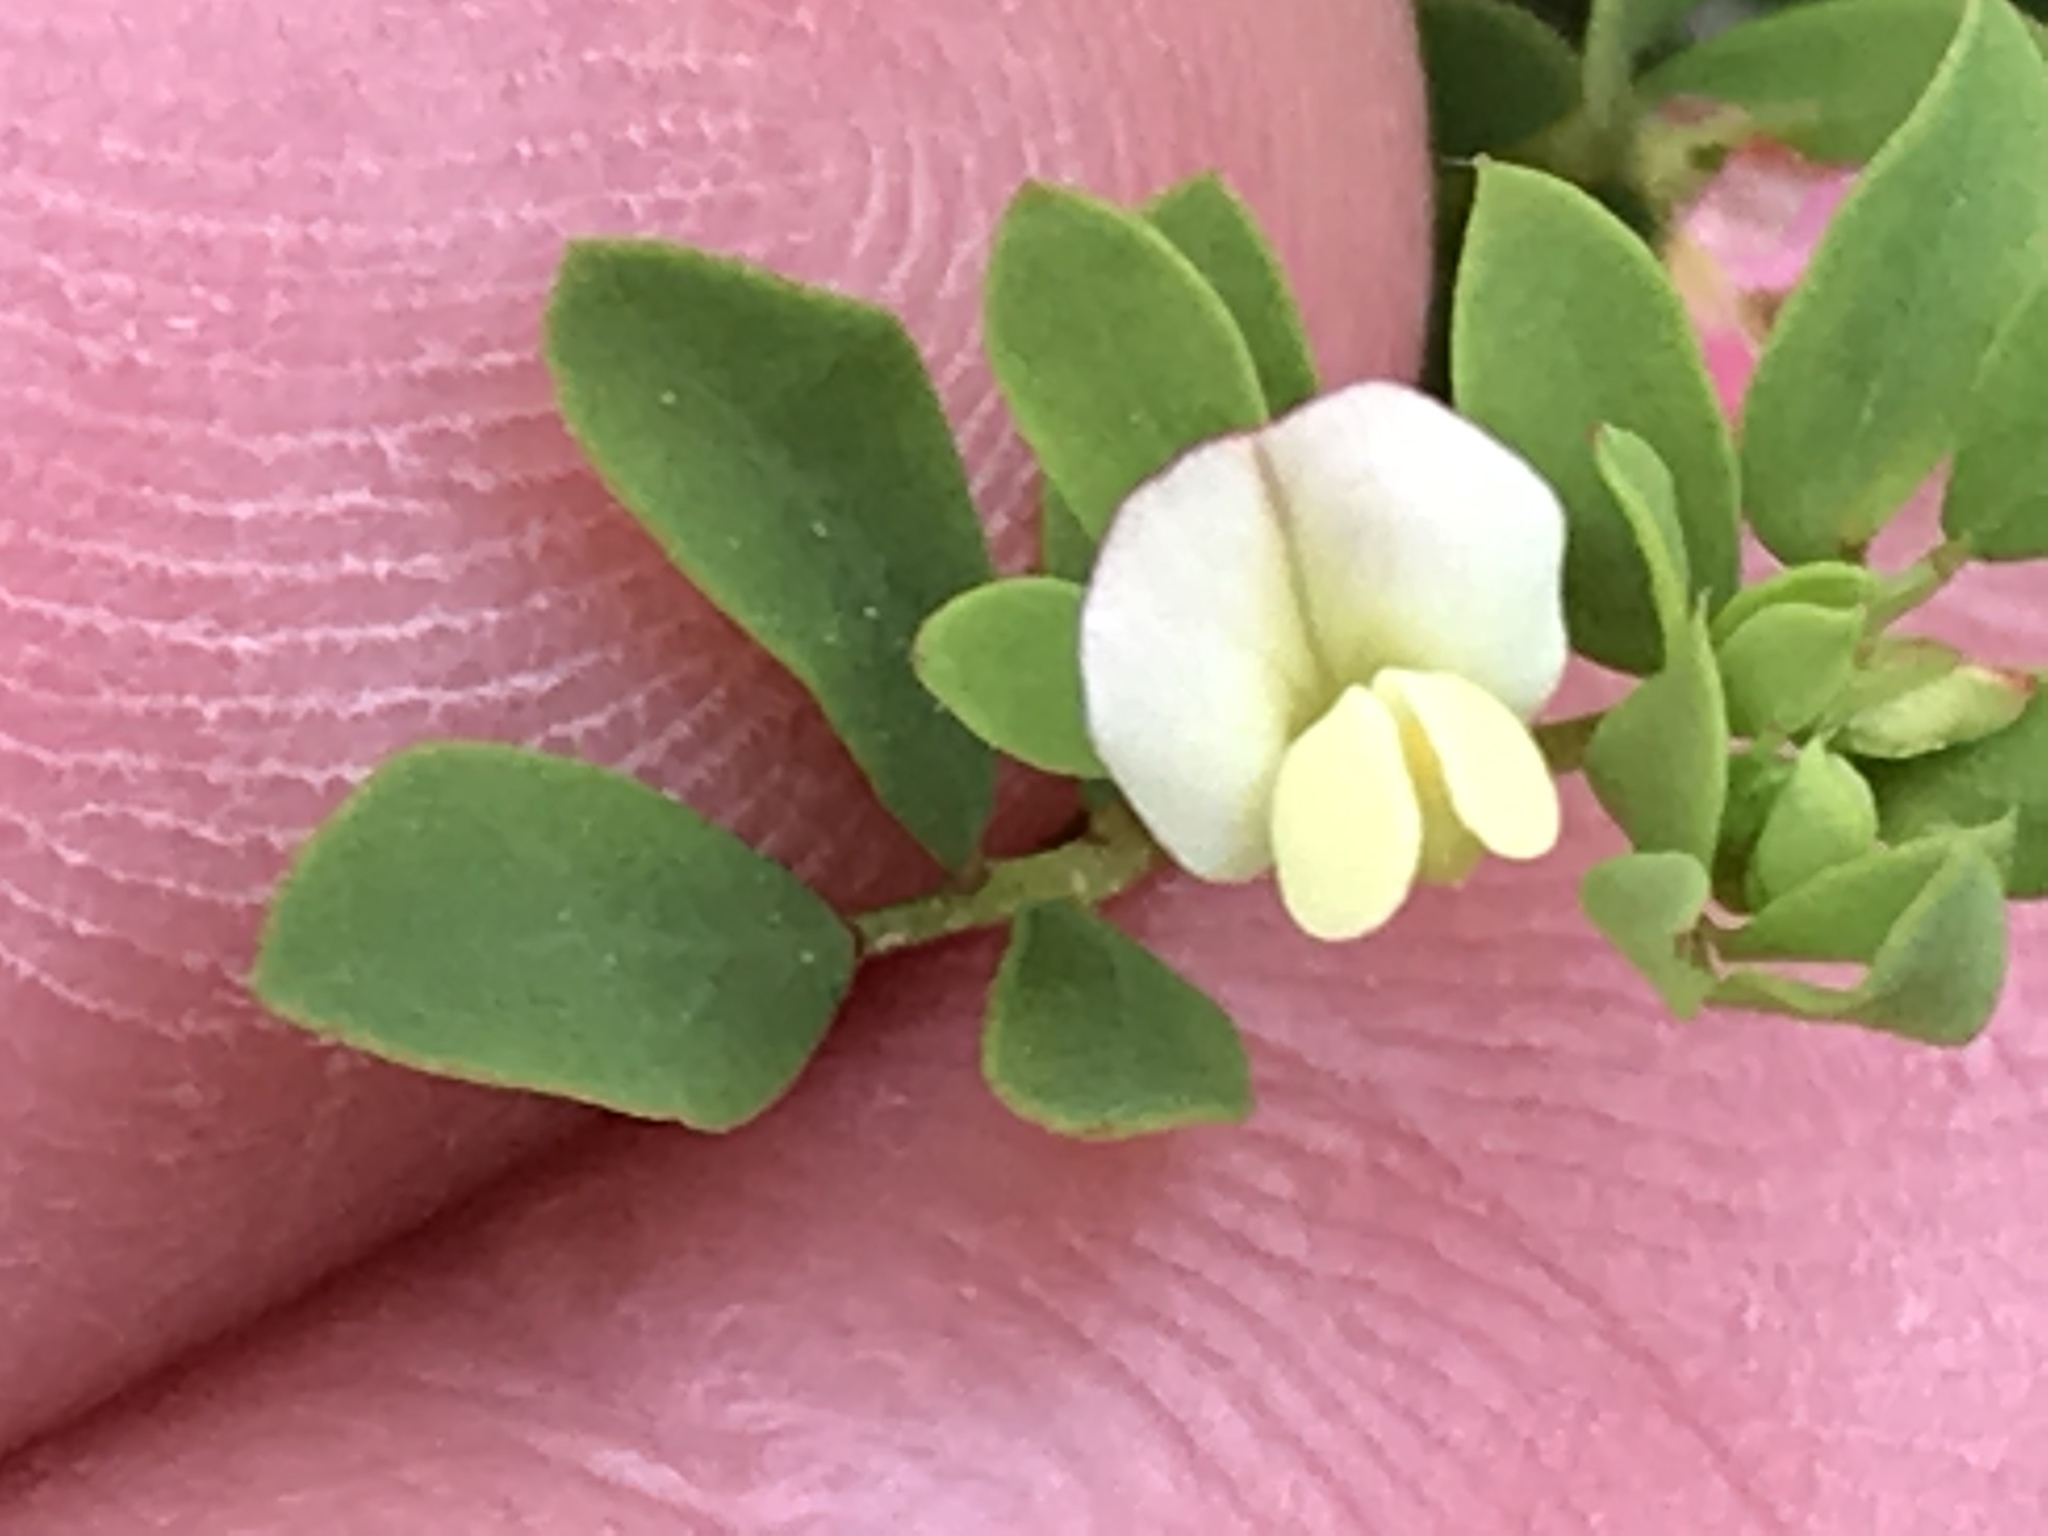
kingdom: Plantae
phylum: Tracheophyta
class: Magnoliopsida
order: Fabales
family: Fabaceae
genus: Acmispon
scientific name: Acmispon parviflorus
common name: Desert deer-vetch
